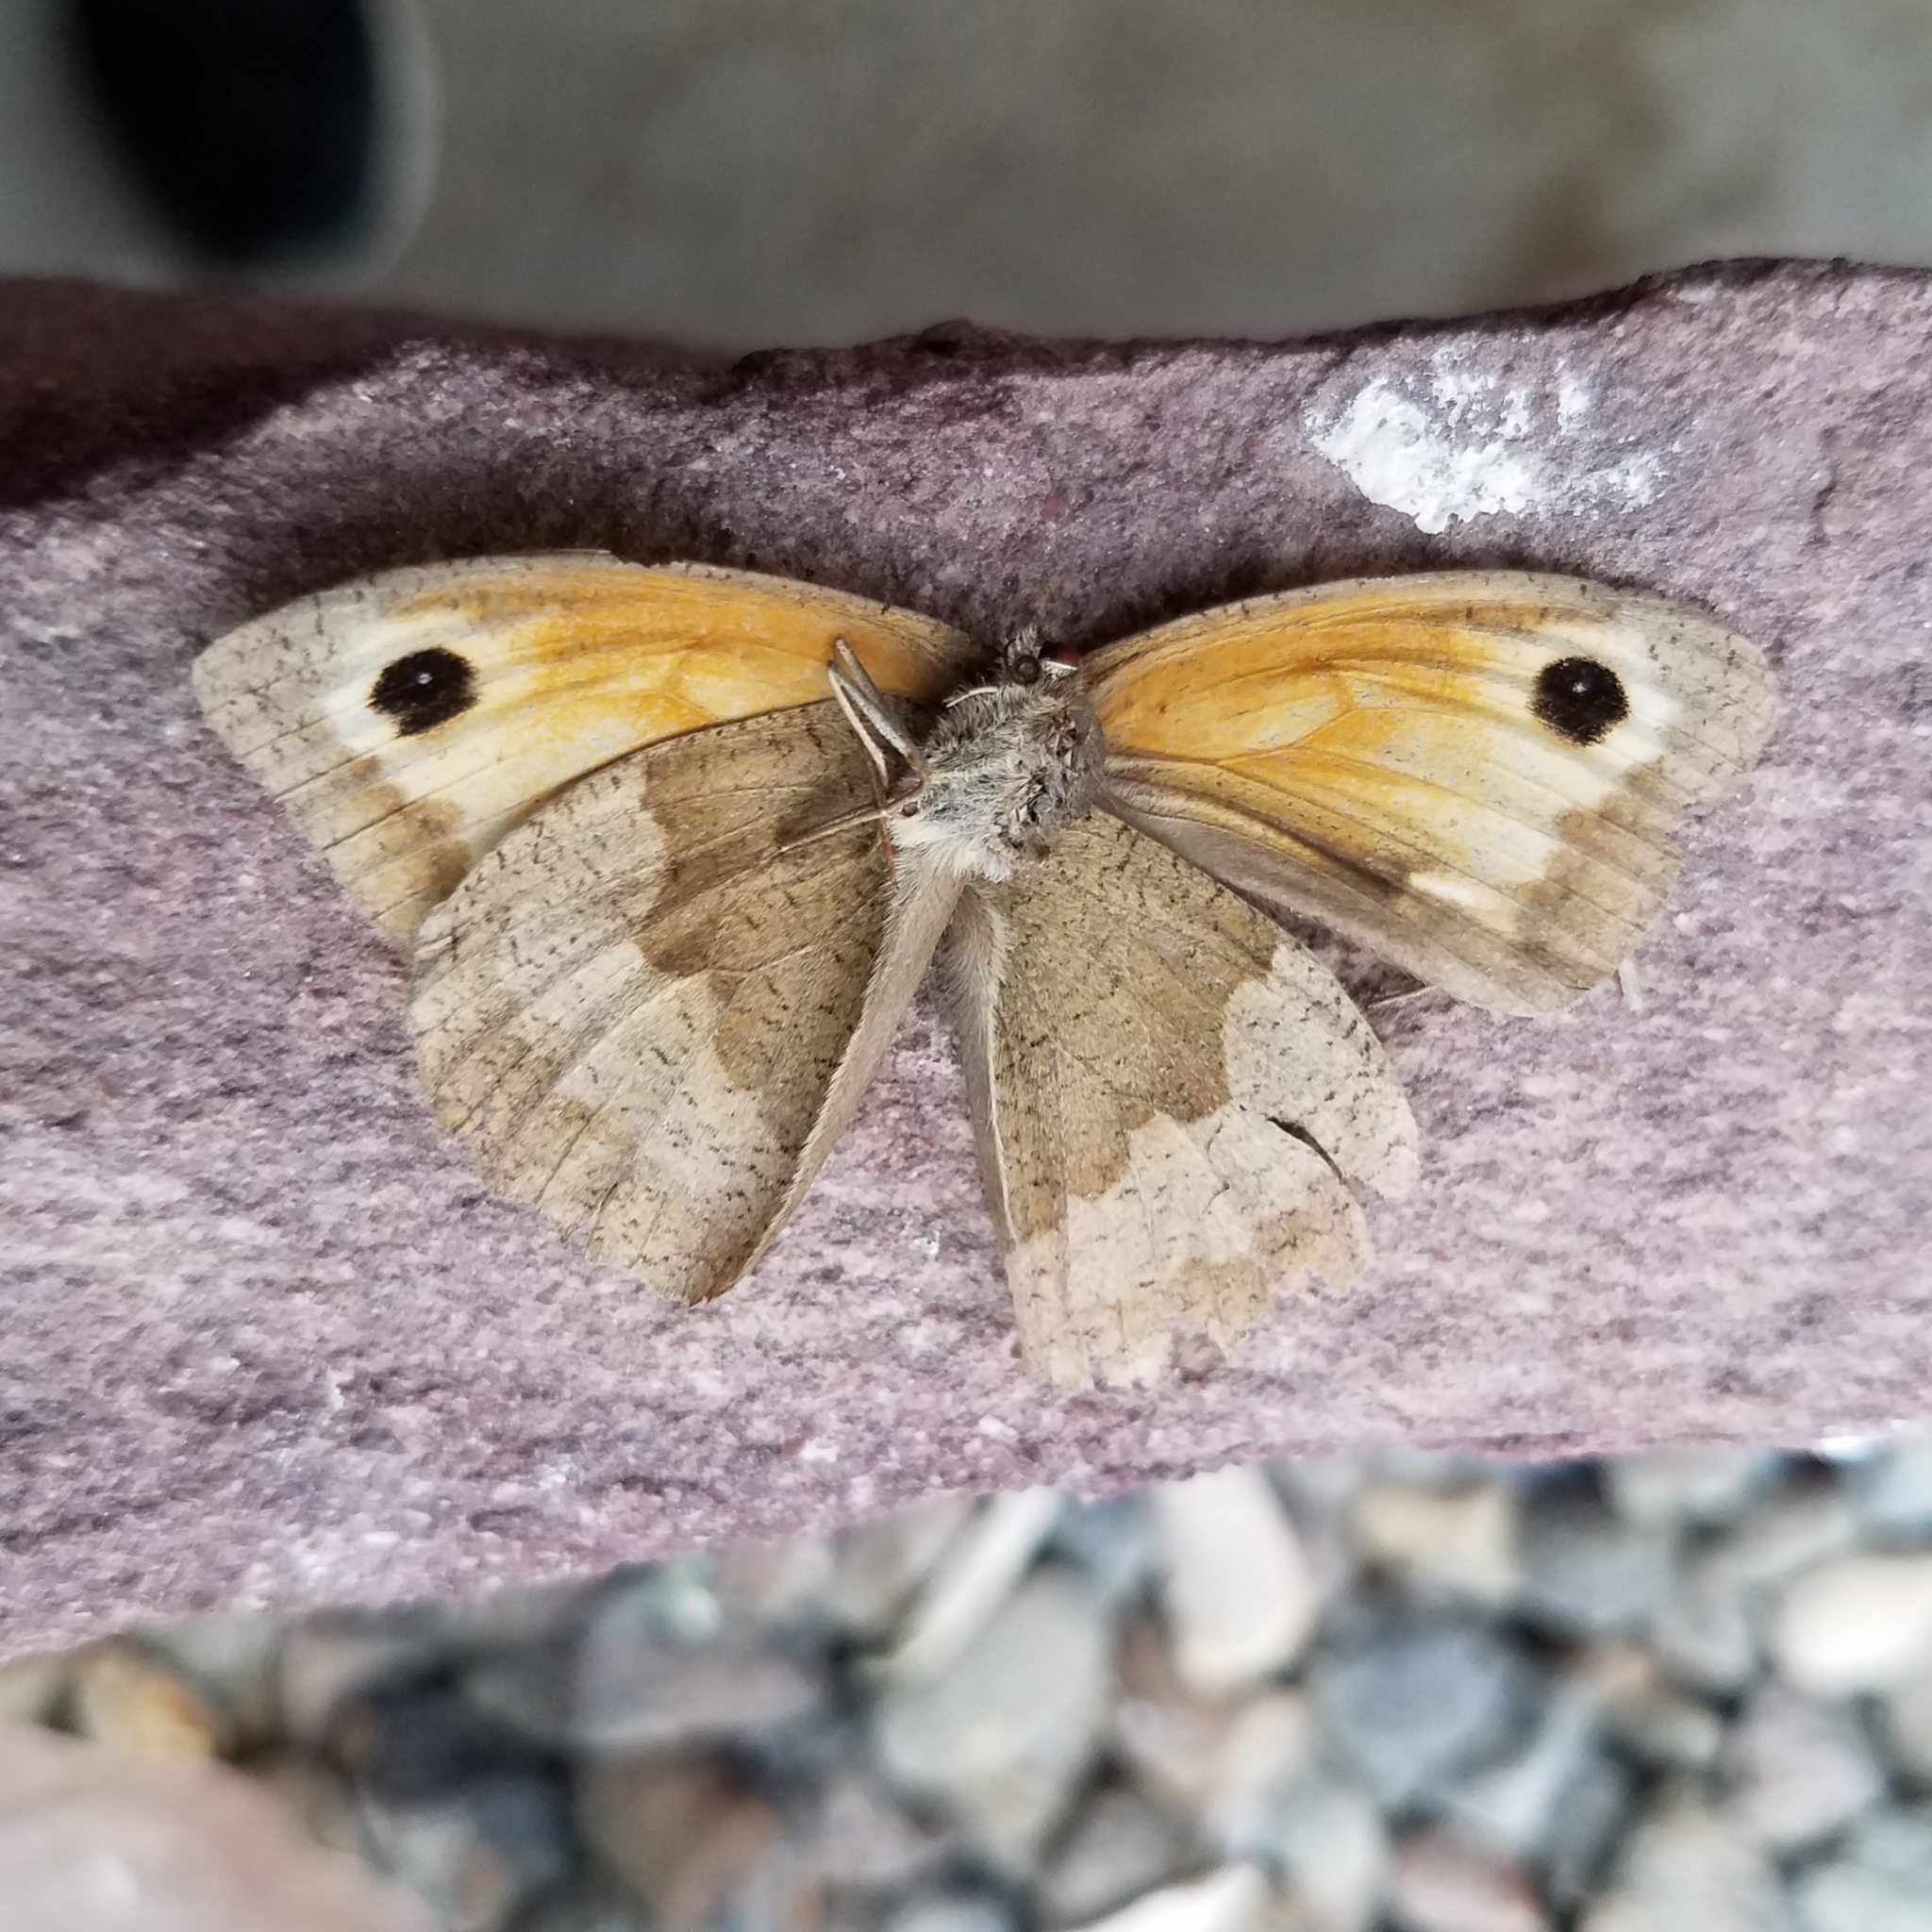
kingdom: Animalia
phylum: Arthropoda
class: Insecta
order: Lepidoptera
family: Nymphalidae
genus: Maniola
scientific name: Maniola jurtina
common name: Meadow brown
